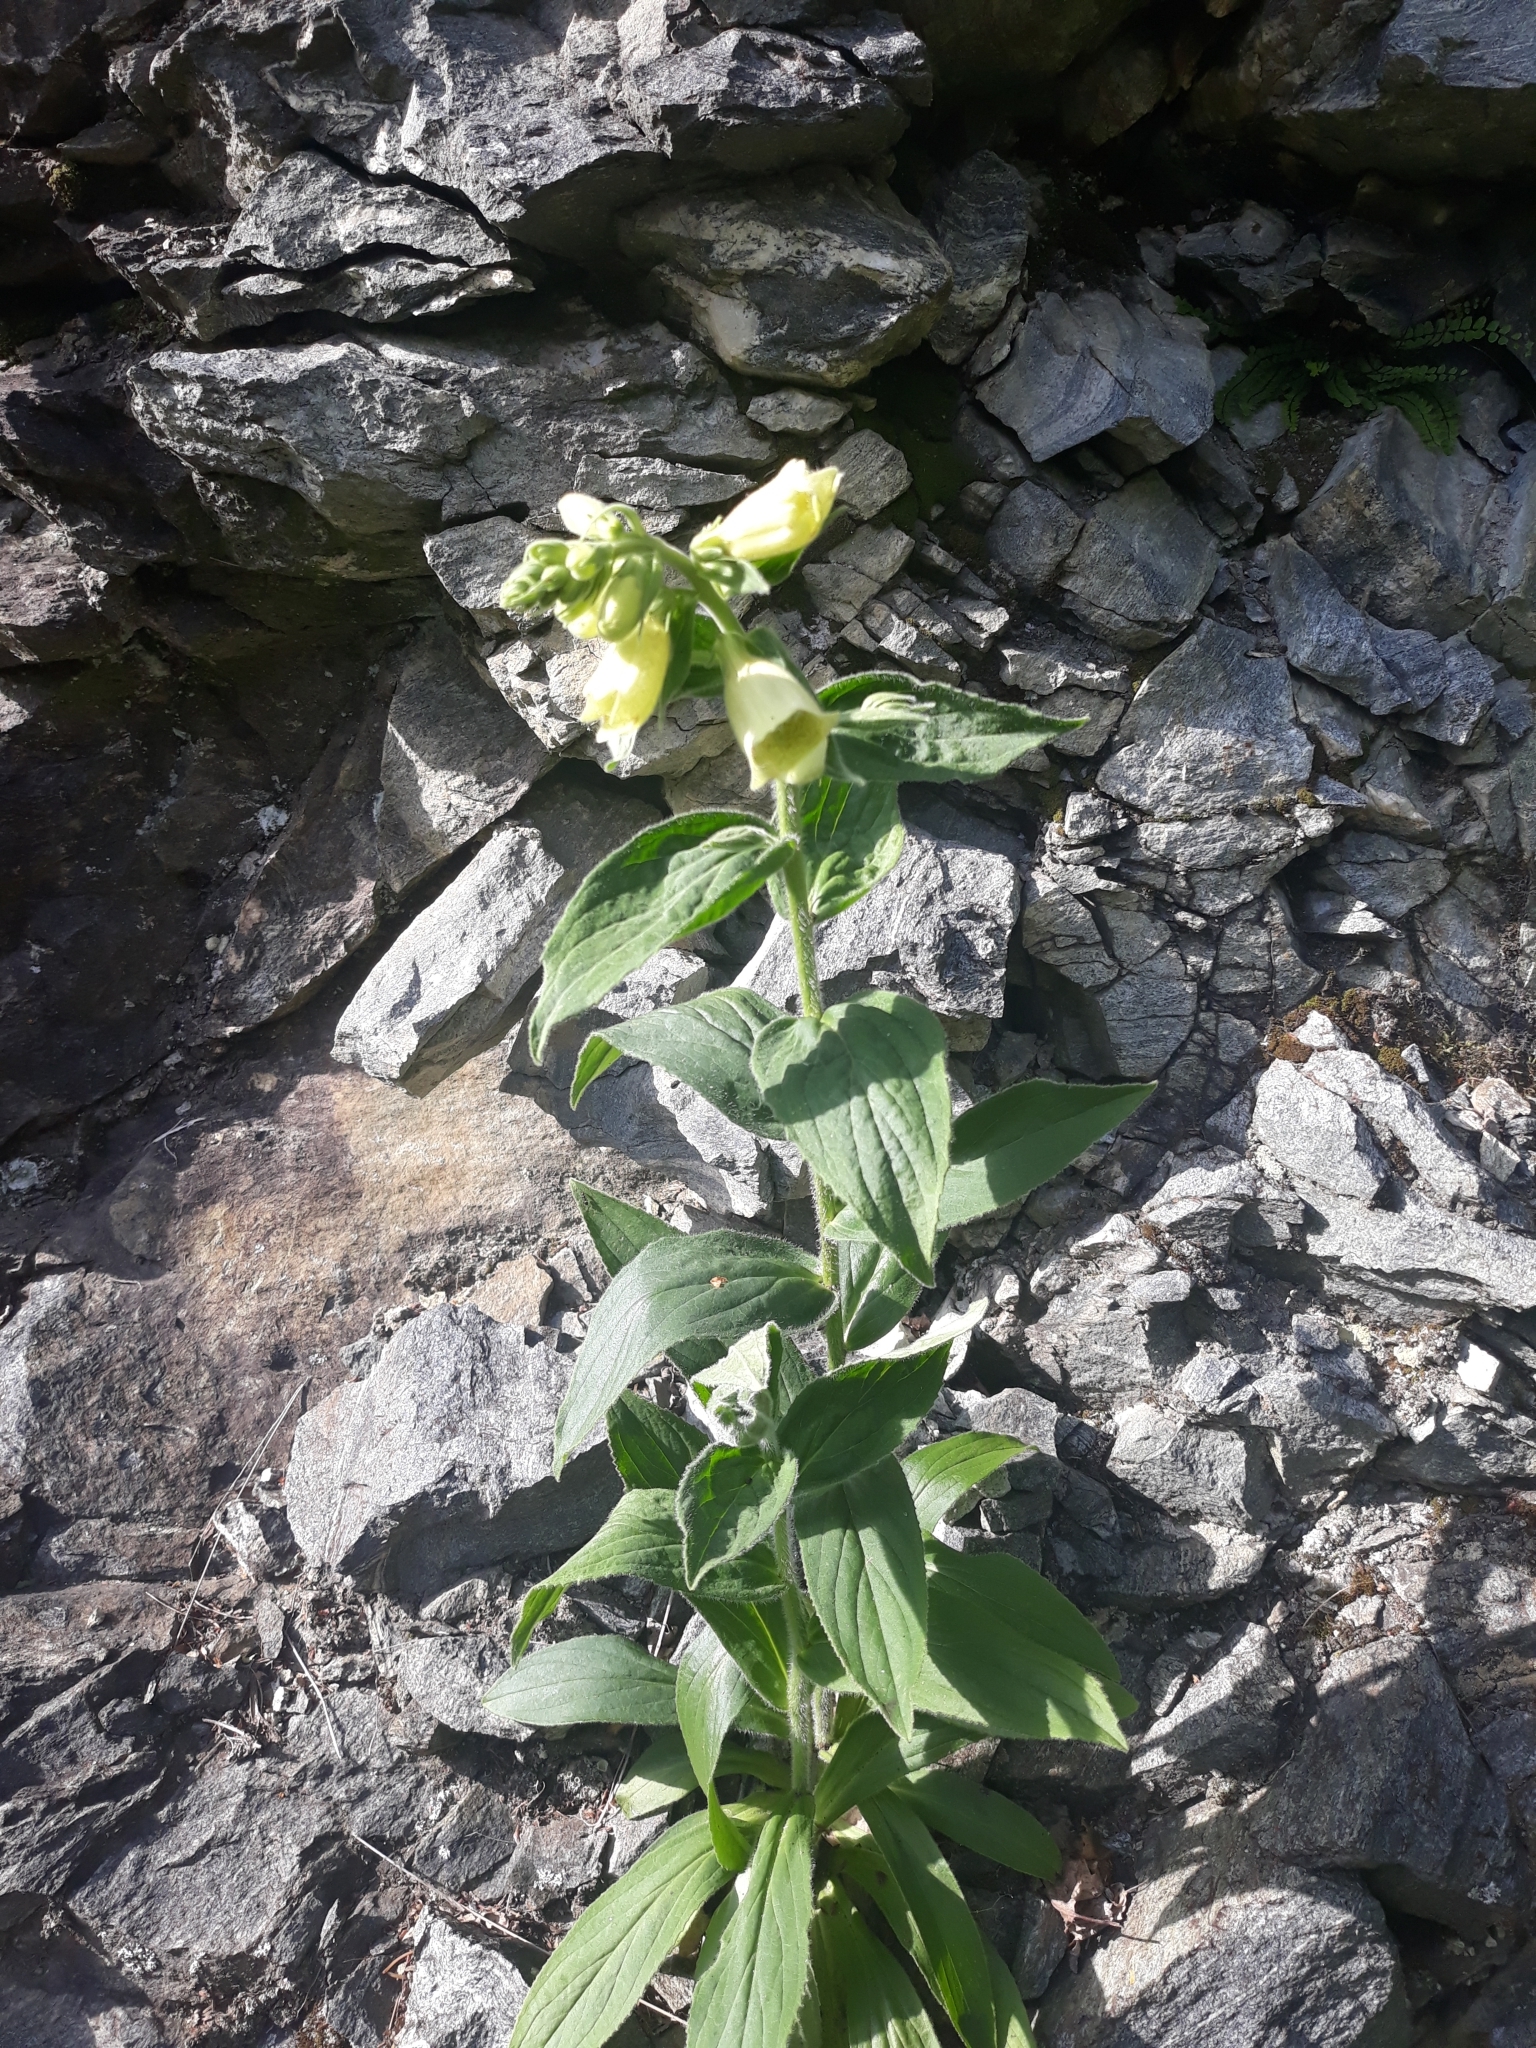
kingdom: Plantae
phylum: Tracheophyta
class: Magnoliopsida
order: Lamiales
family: Plantaginaceae
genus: Digitalis
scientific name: Digitalis grandiflora
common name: Yellow foxglove
